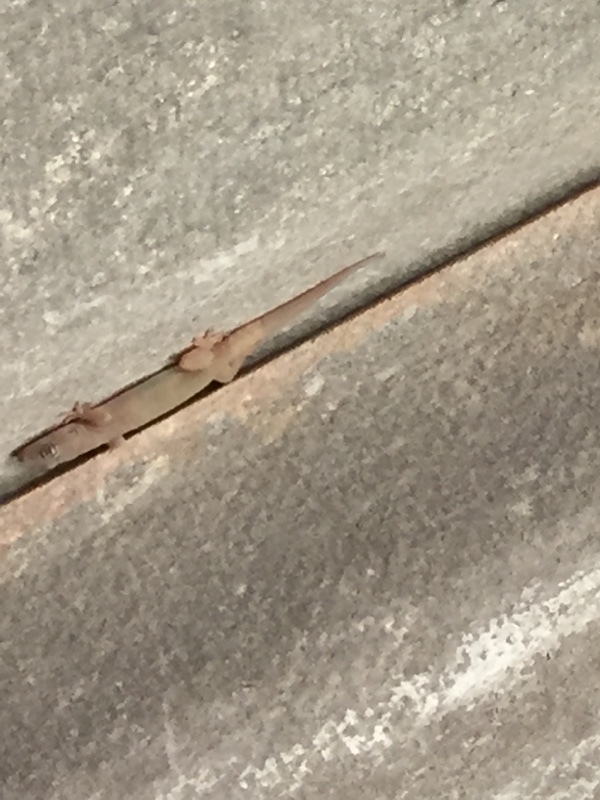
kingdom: Animalia
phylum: Chordata
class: Squamata
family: Gekkonidae
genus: Gehyra
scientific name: Gehyra mutilata
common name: Stump-toed gecko
